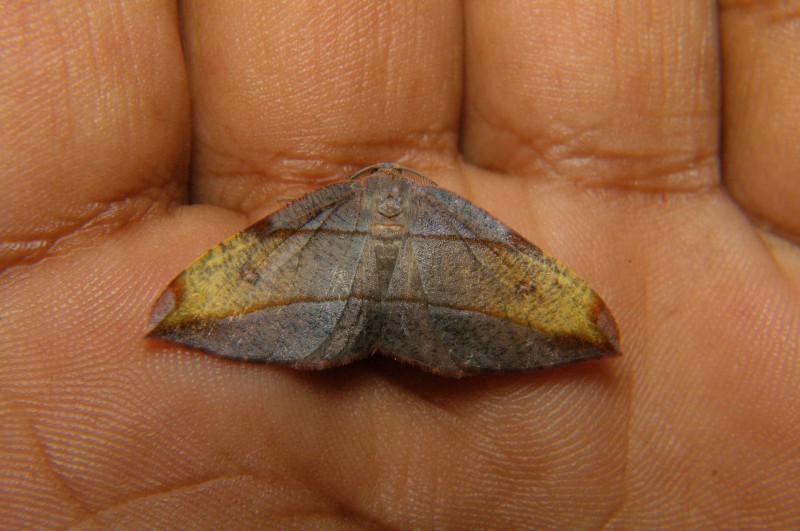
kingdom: Animalia
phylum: Arthropoda
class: Insecta
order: Lepidoptera
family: Geometridae
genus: Hypochrosis
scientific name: Hypochrosis hyadaria
